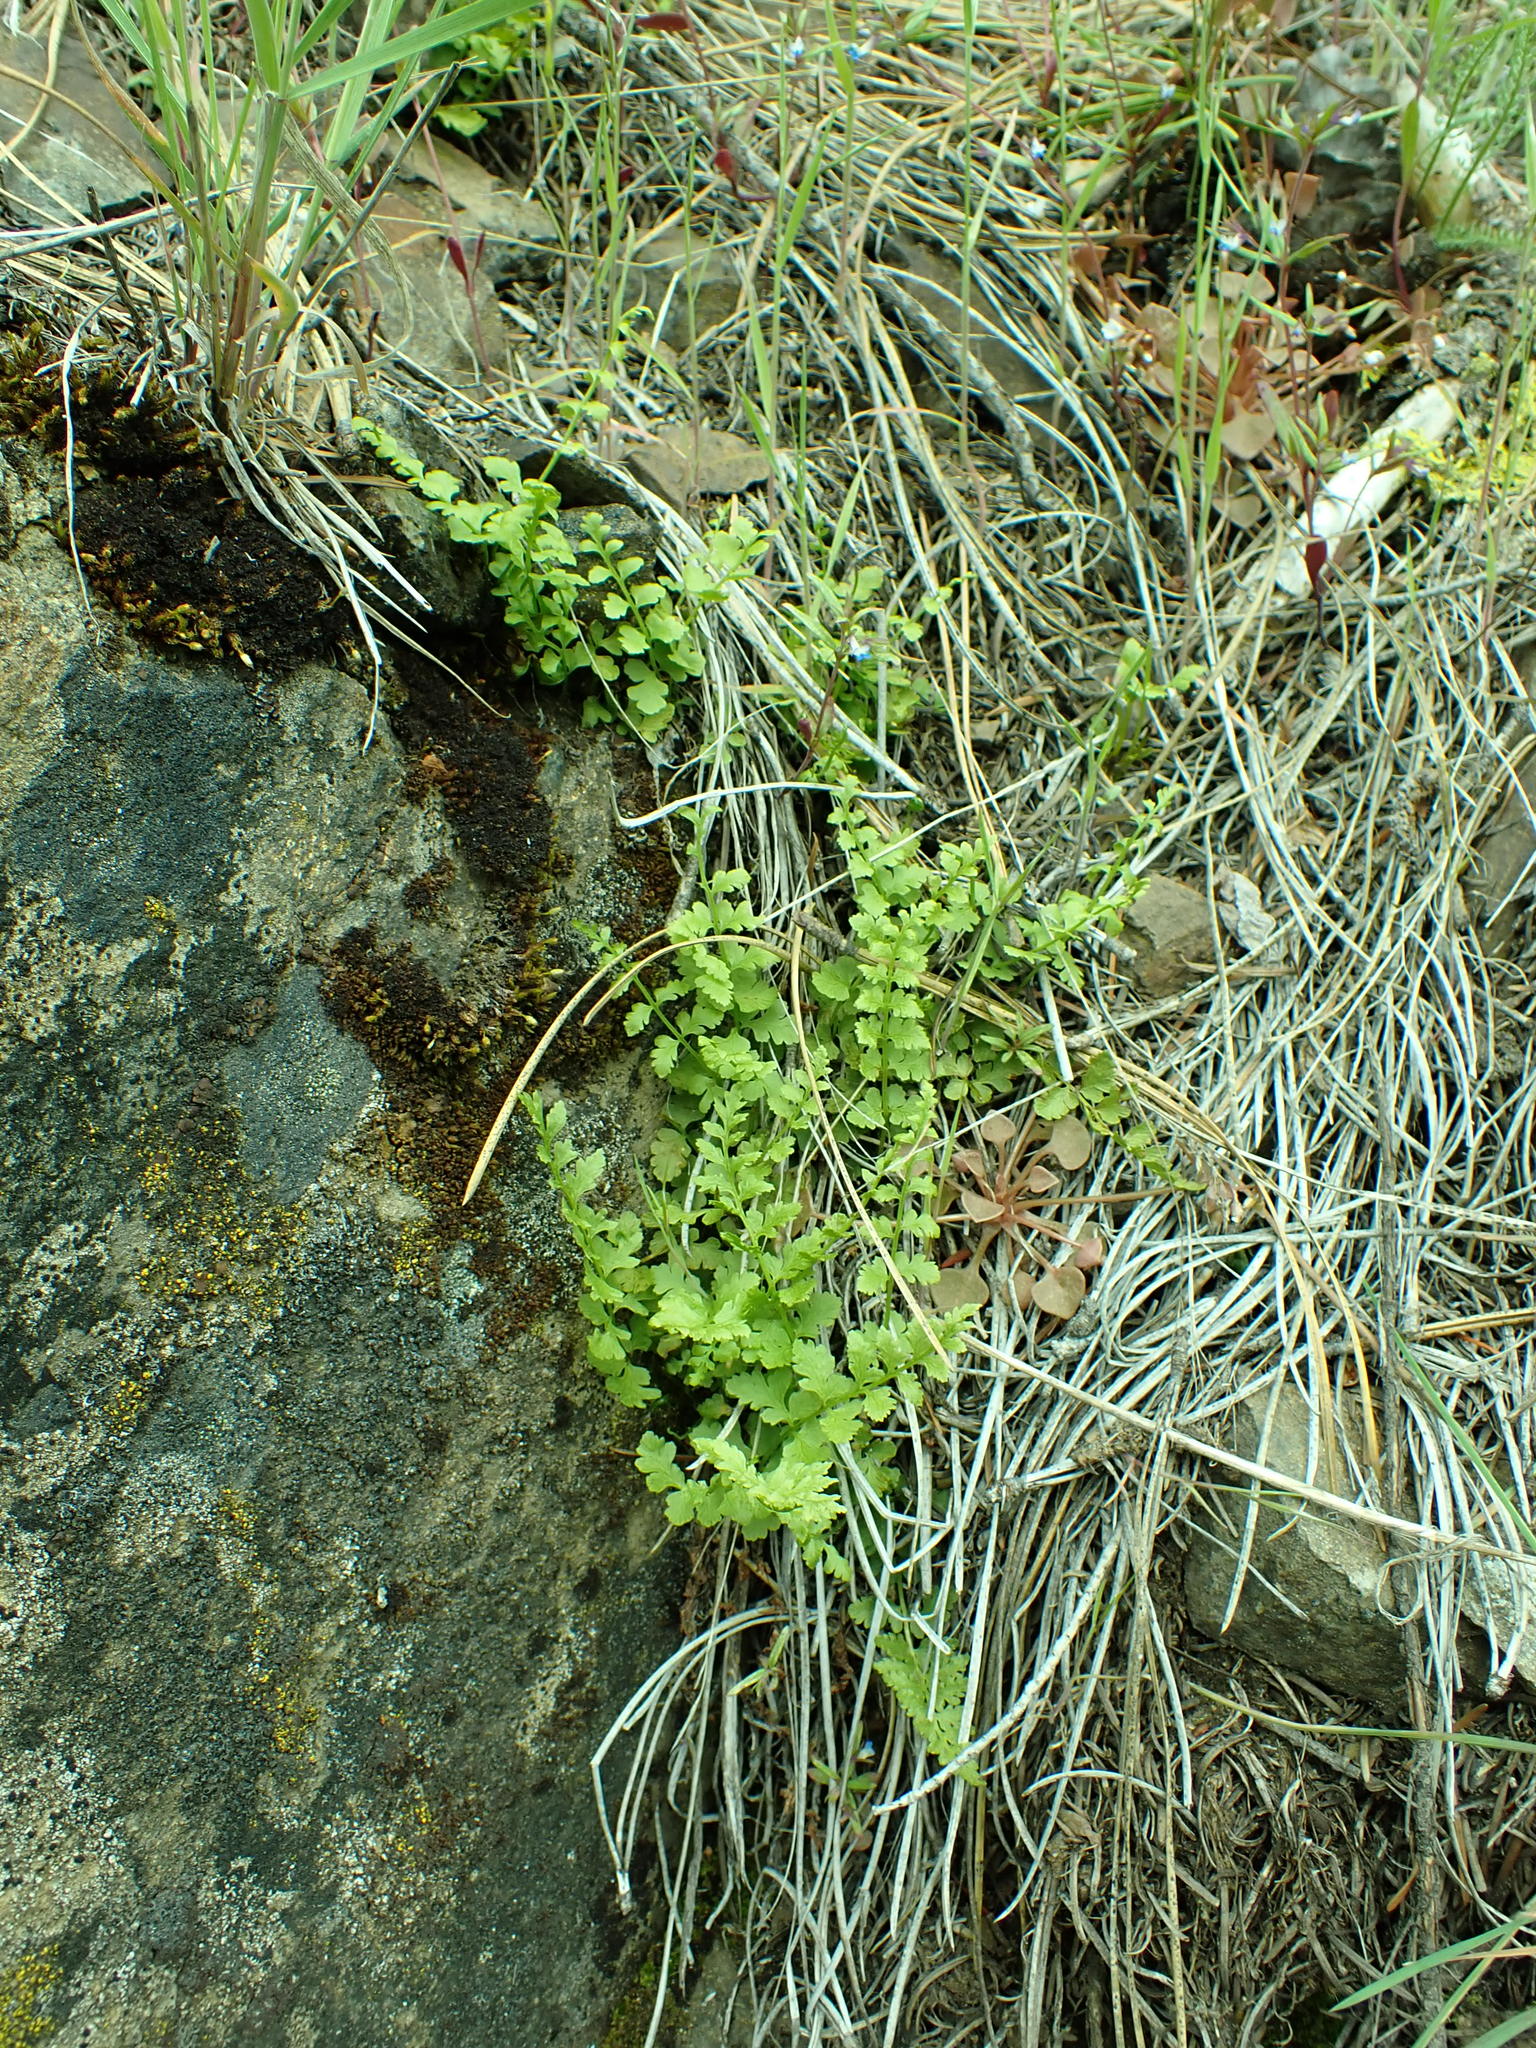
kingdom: Plantae
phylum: Tracheophyta
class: Polypodiopsida
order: Polypodiales
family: Cystopteridaceae
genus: Cystopteris
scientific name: Cystopteris fragilis
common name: Brittle bladder fern
